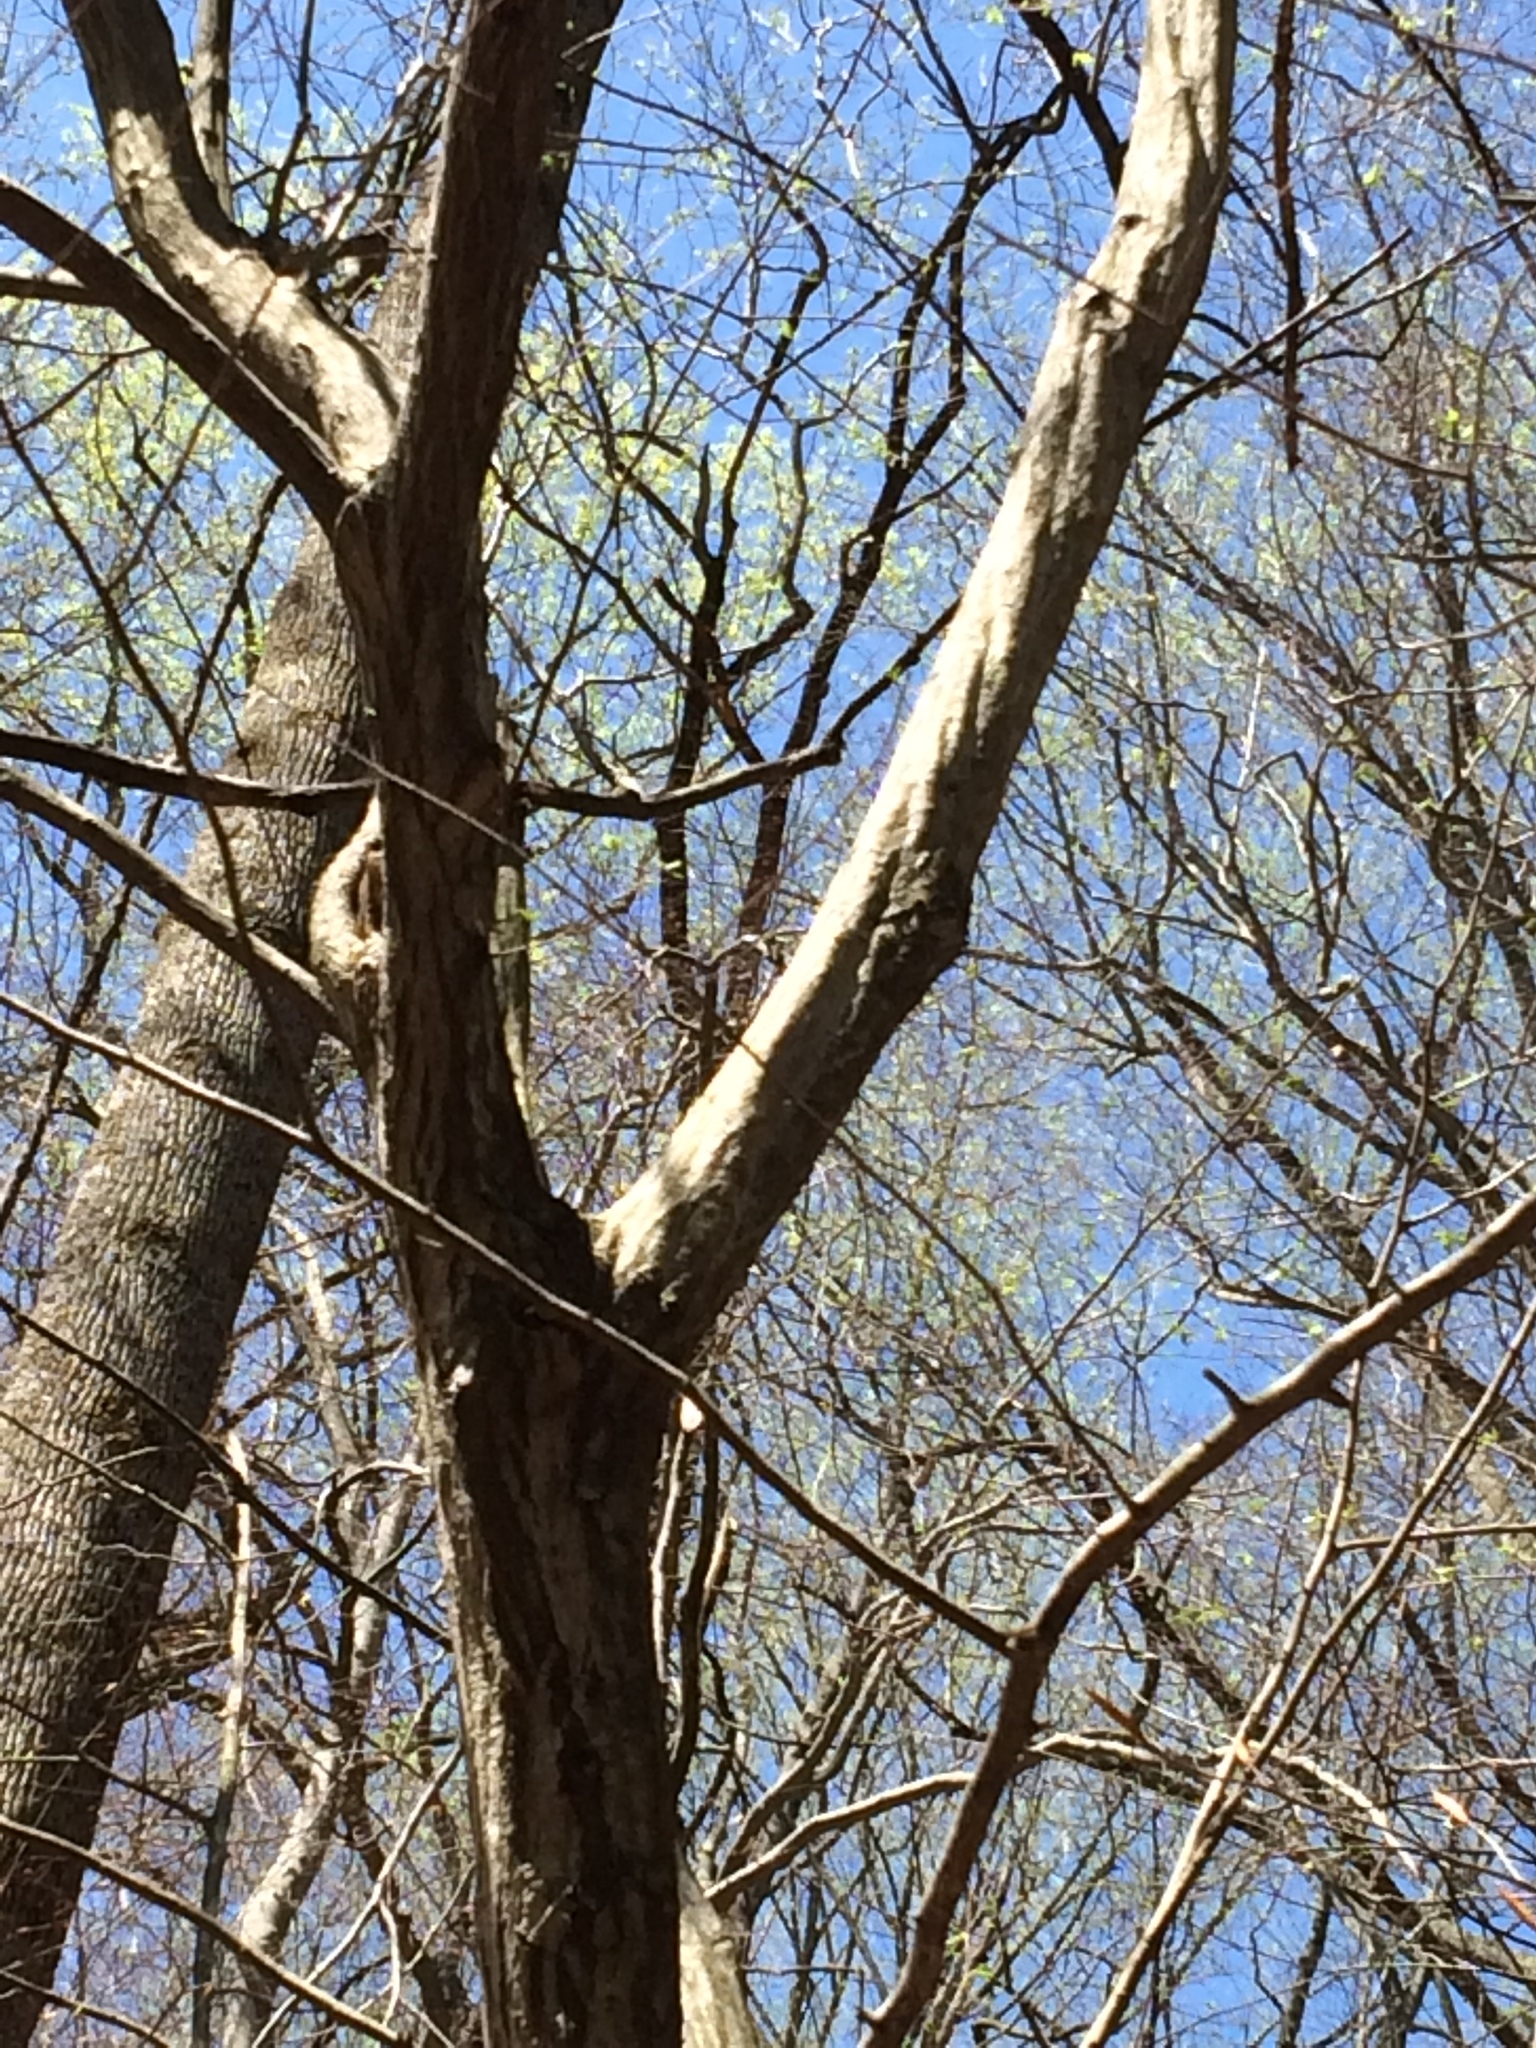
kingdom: Plantae
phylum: Tracheophyta
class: Magnoliopsida
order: Fagales
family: Betulaceae
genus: Carpinus
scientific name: Carpinus caroliniana
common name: American hornbeam
